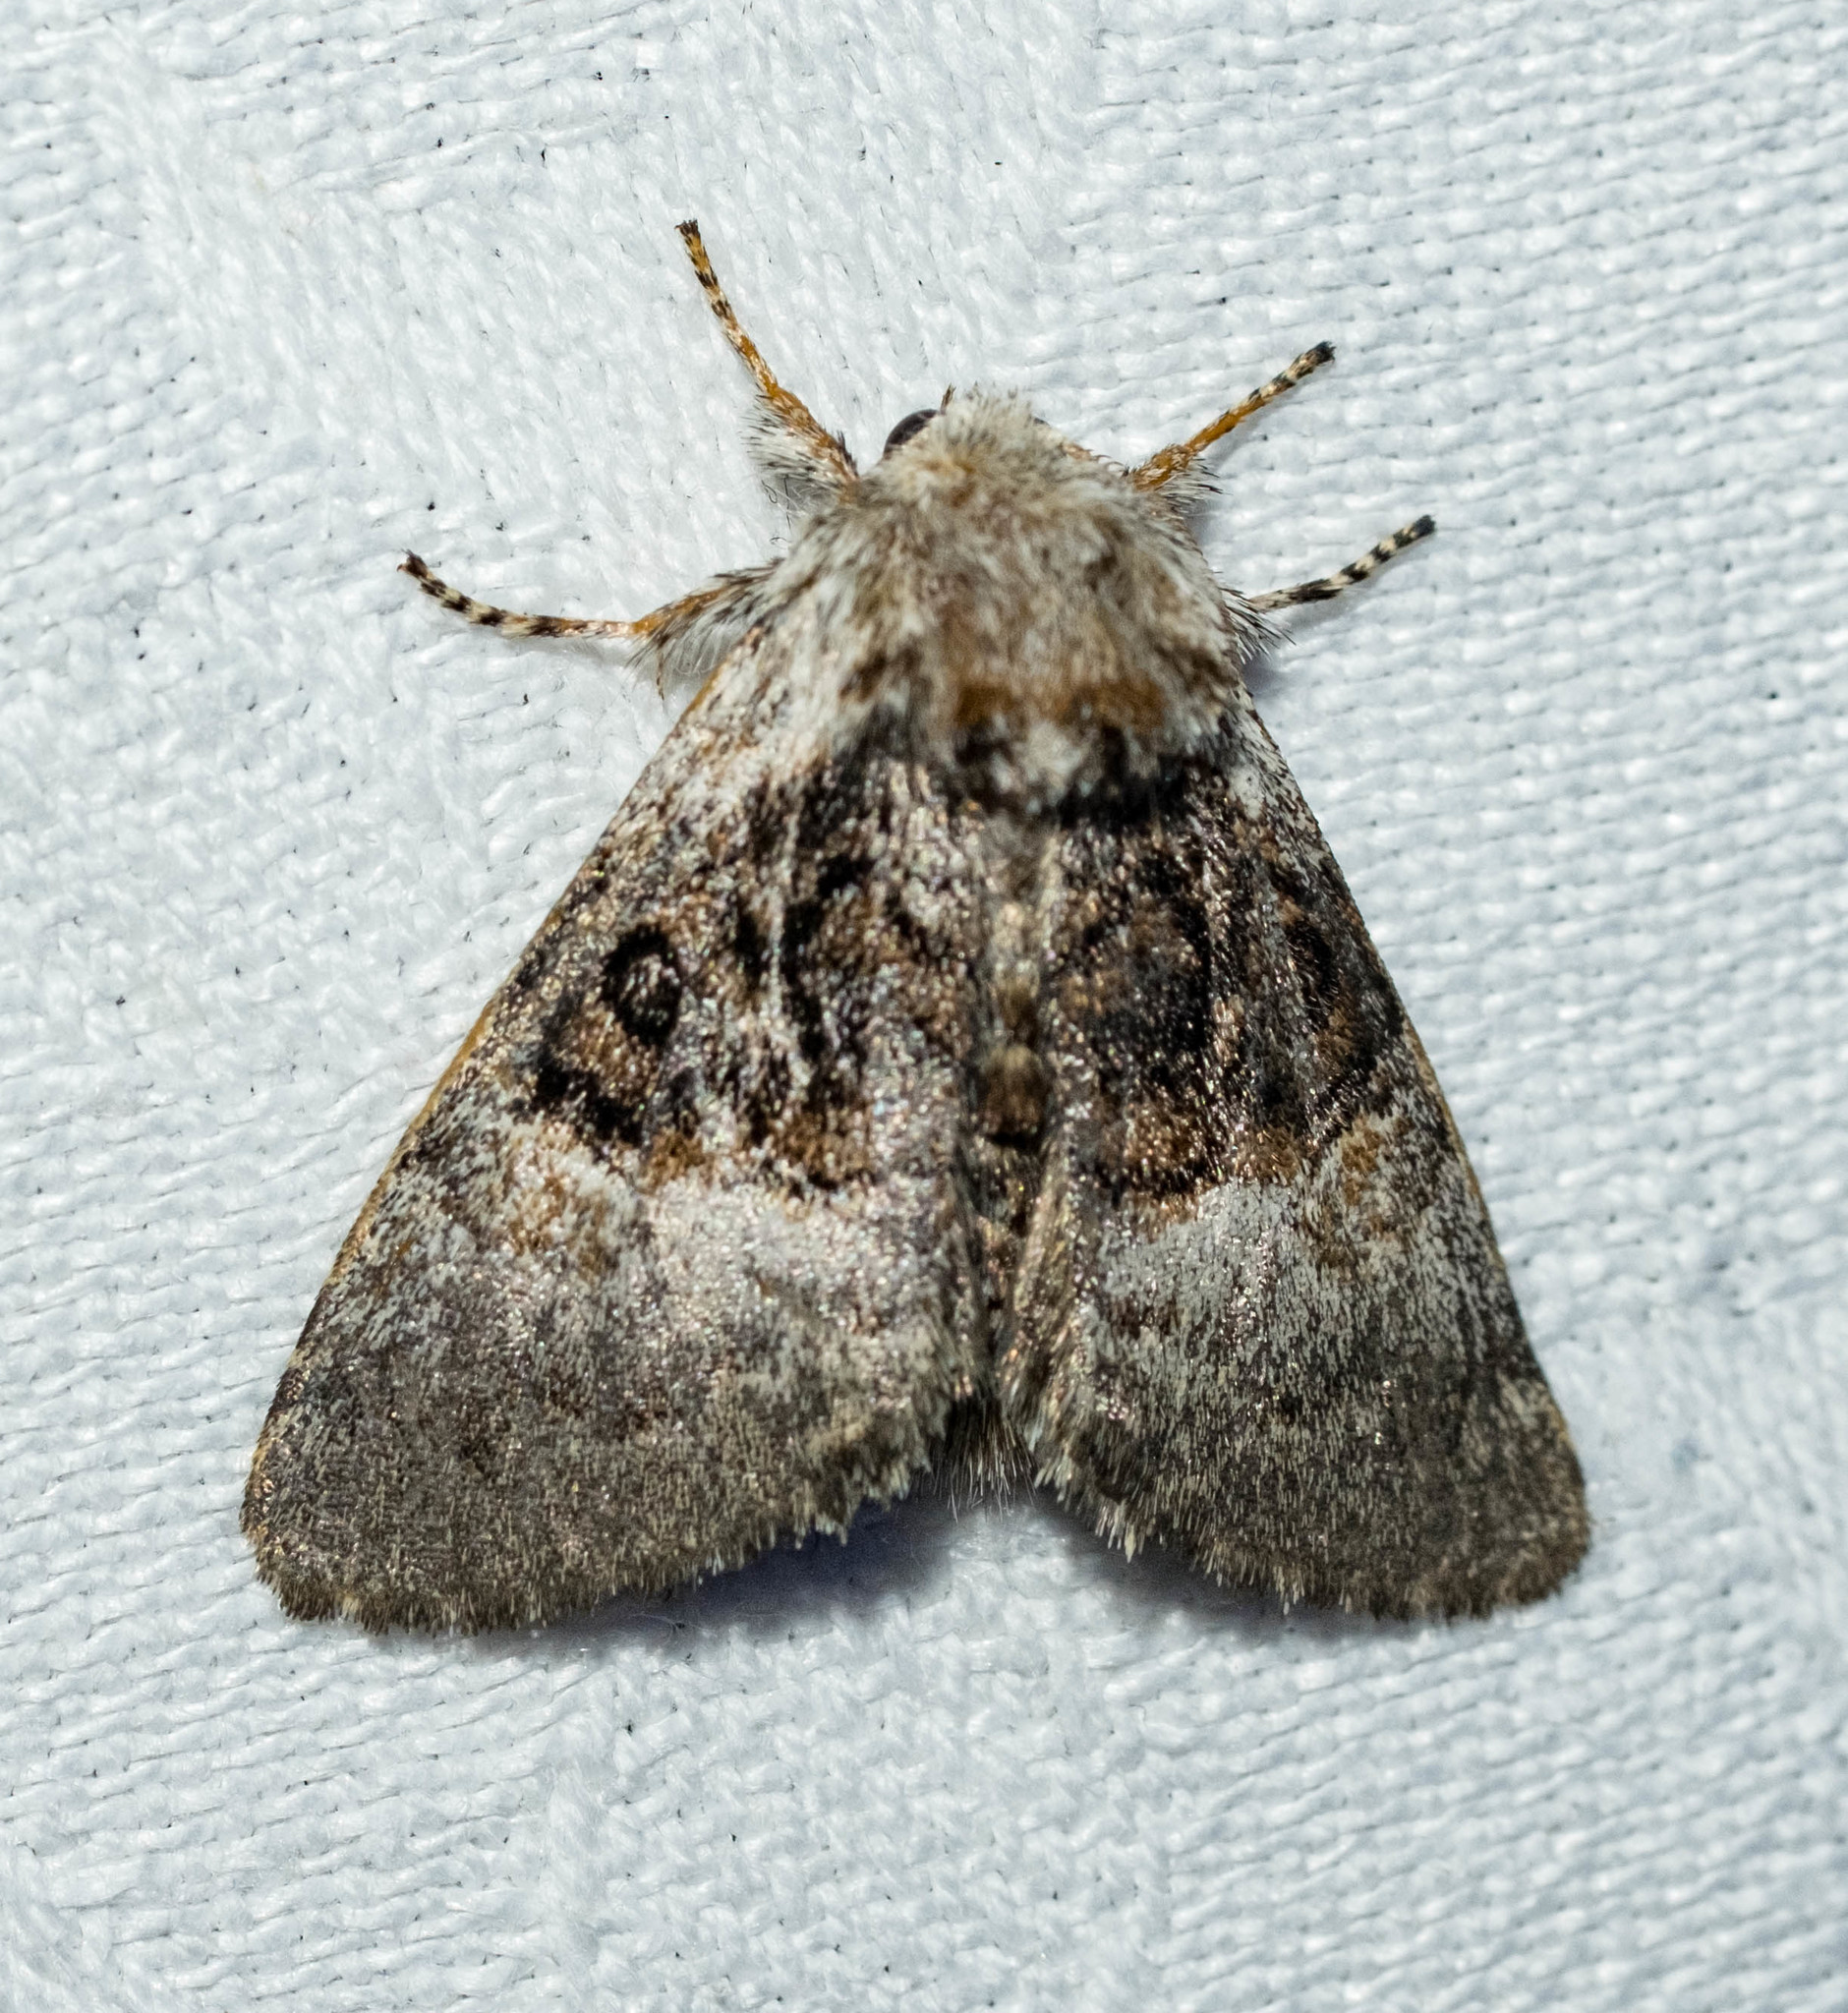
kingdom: Animalia
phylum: Arthropoda
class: Insecta
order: Lepidoptera
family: Noctuidae
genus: Colocasia
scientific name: Colocasia coryli
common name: Nut-tree tussock
